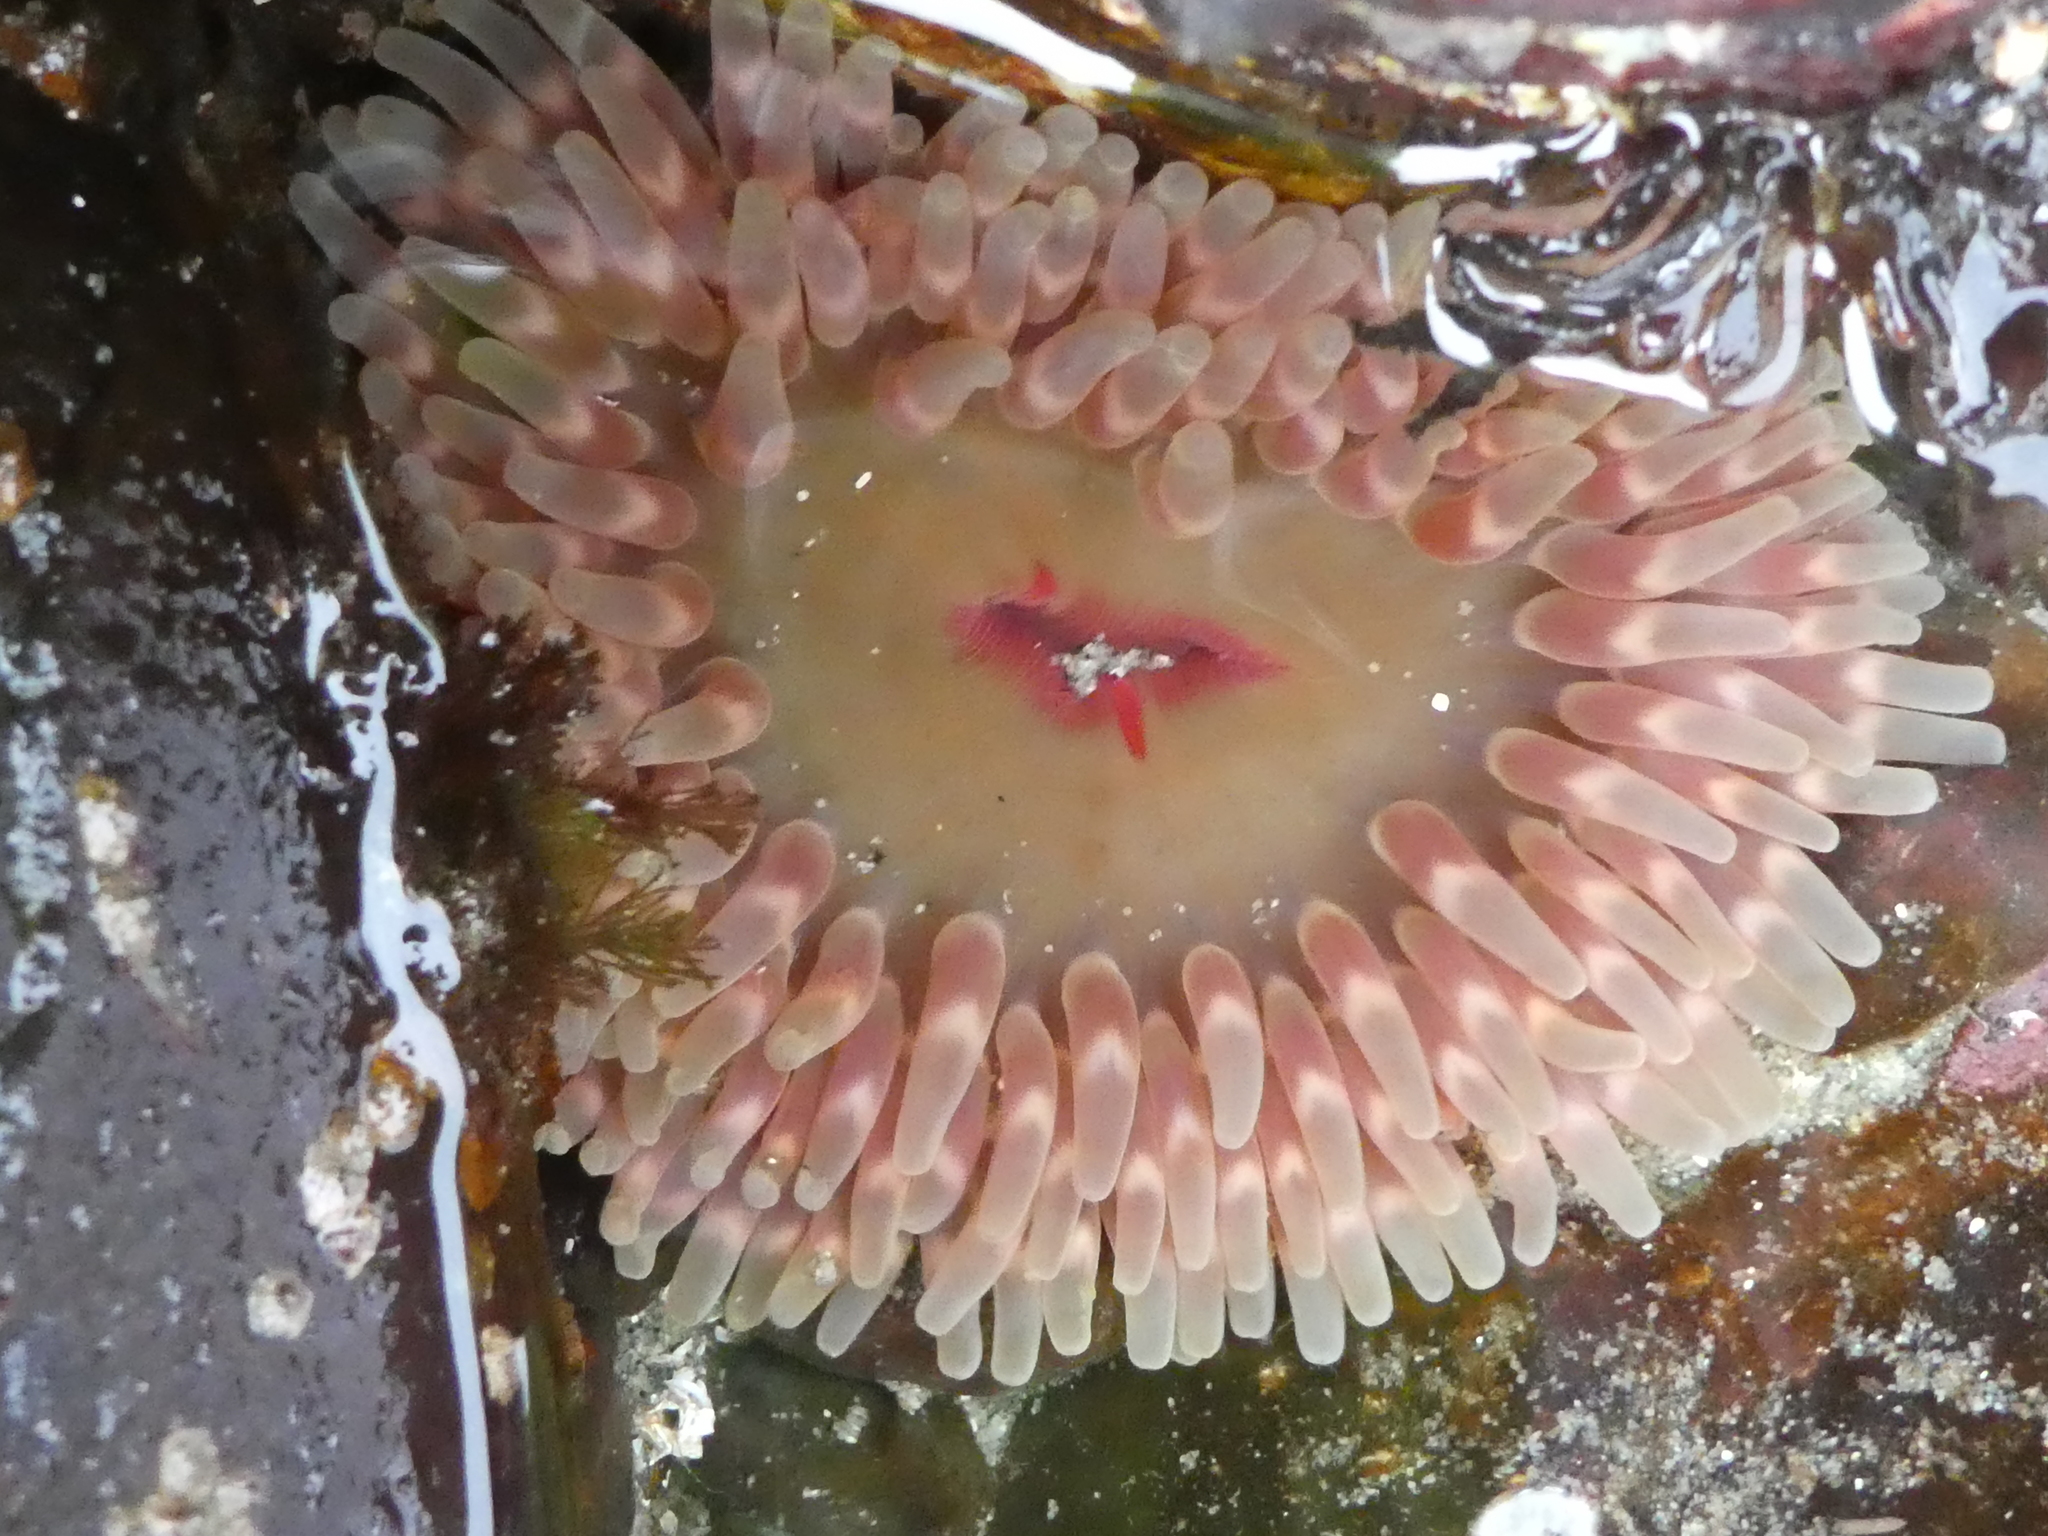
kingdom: Animalia
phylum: Cnidaria
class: Anthozoa
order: Actiniaria
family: Actiniidae
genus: Urticina
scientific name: Urticina clandestina
